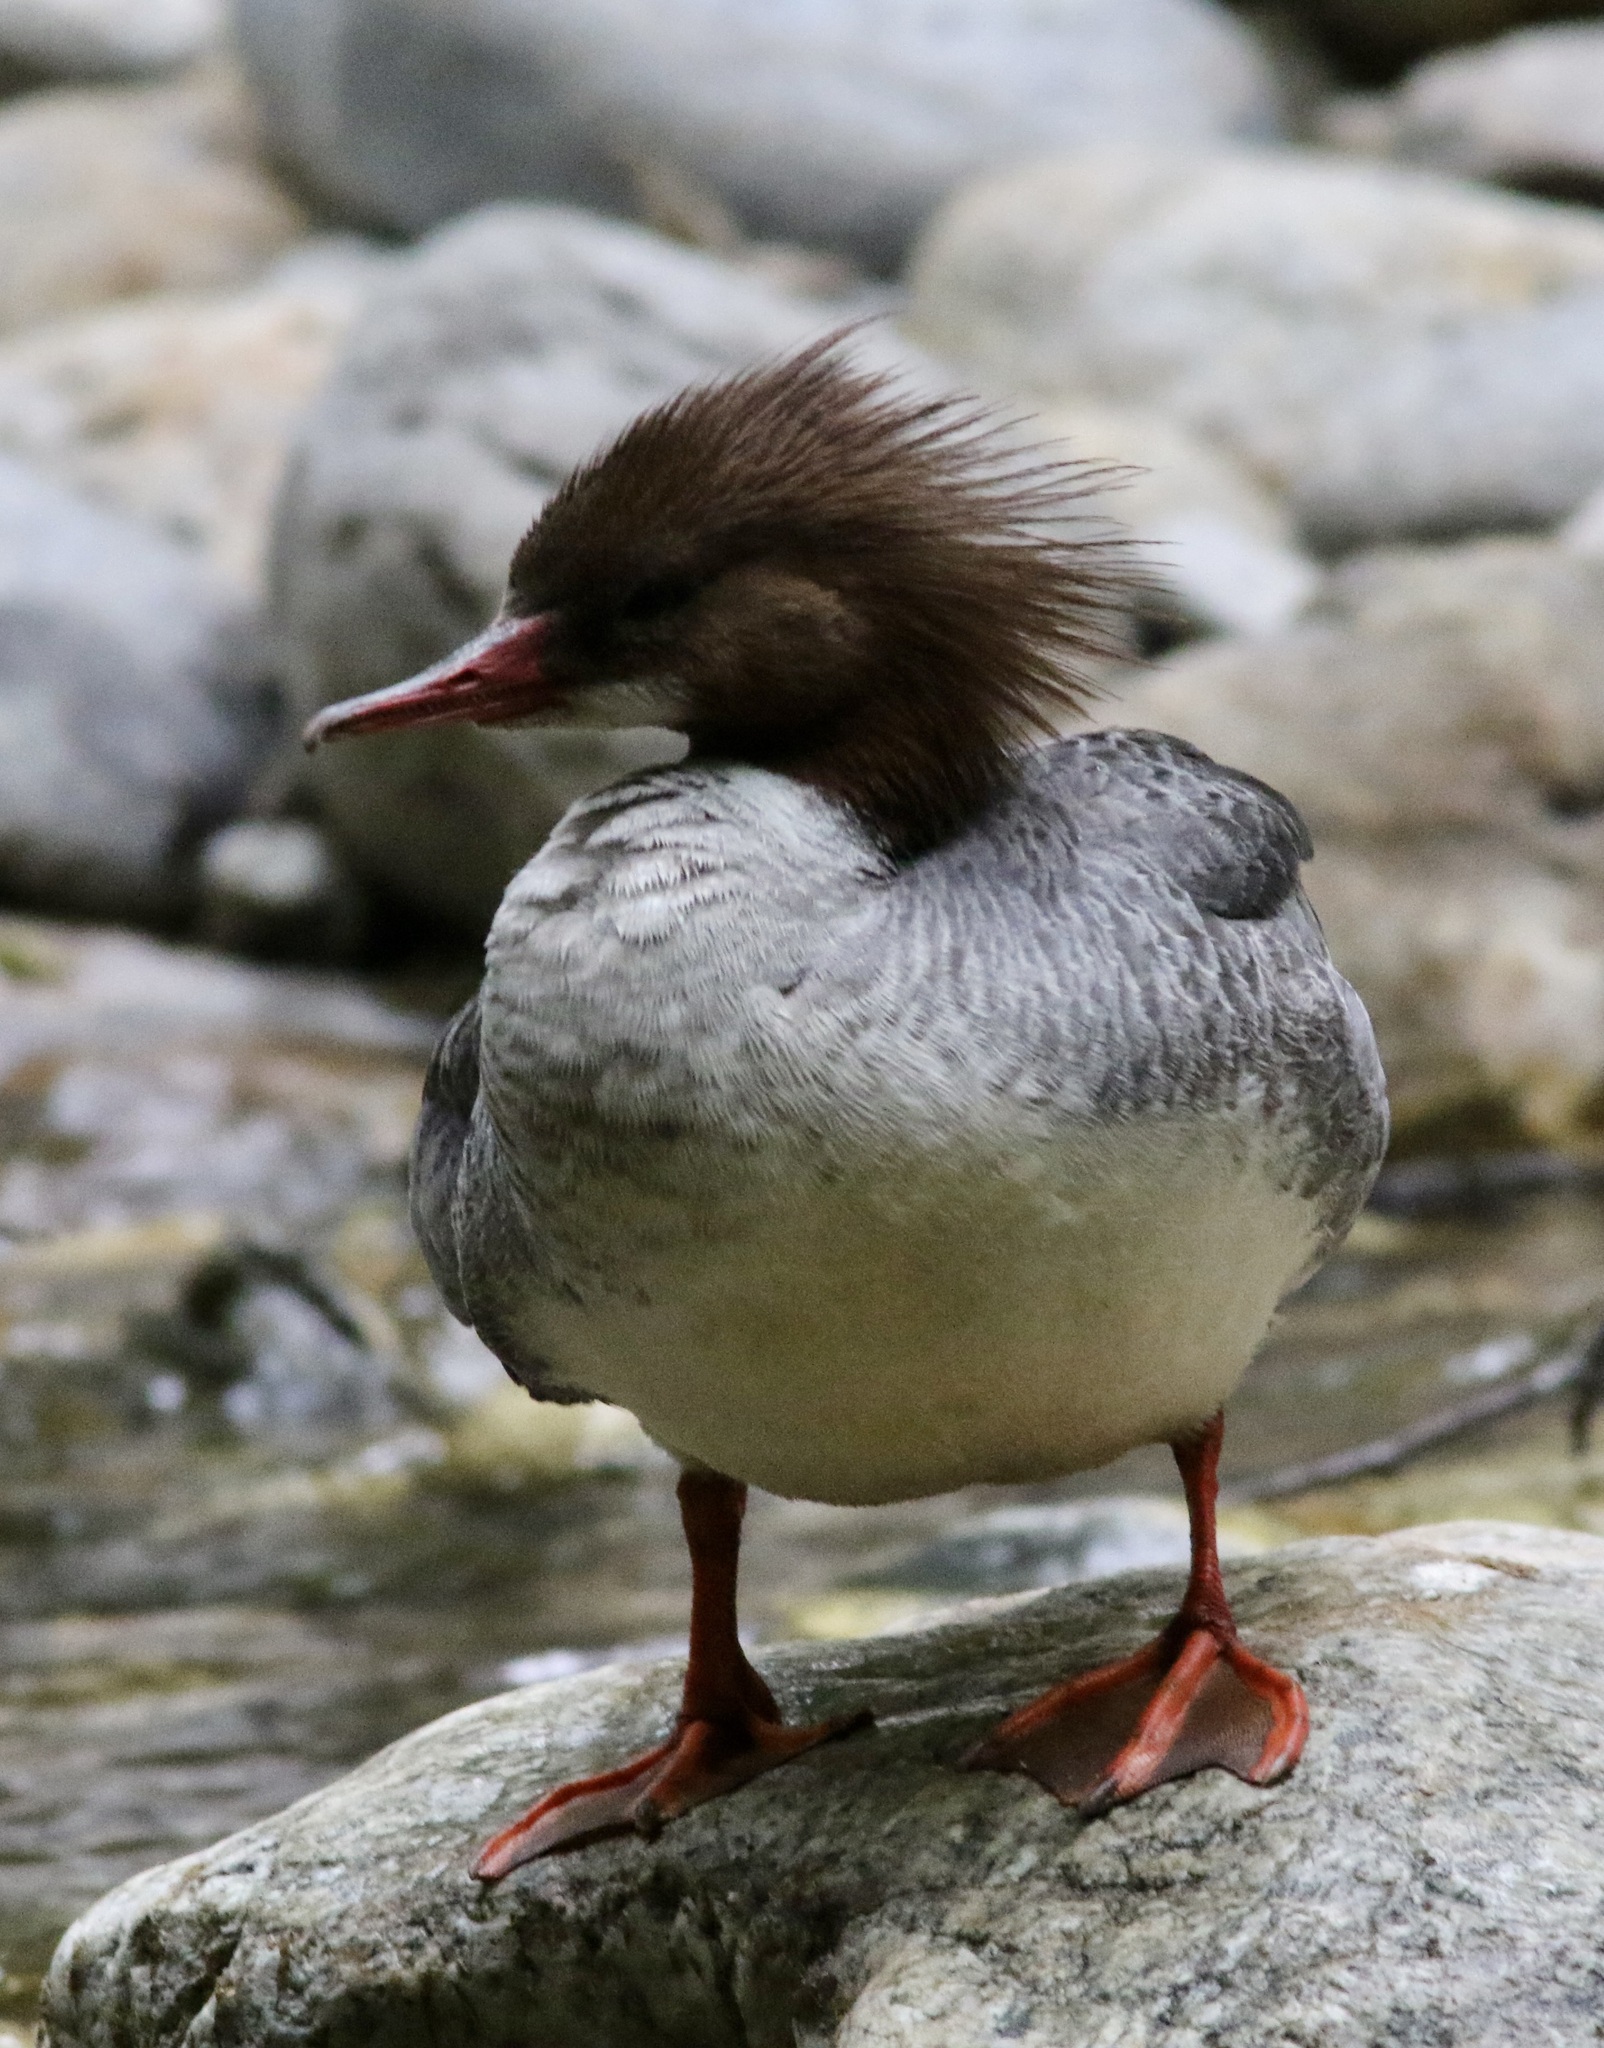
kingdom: Animalia
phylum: Chordata
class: Aves
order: Anseriformes
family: Anatidae
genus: Mergus
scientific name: Mergus merganser
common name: Common merganser
